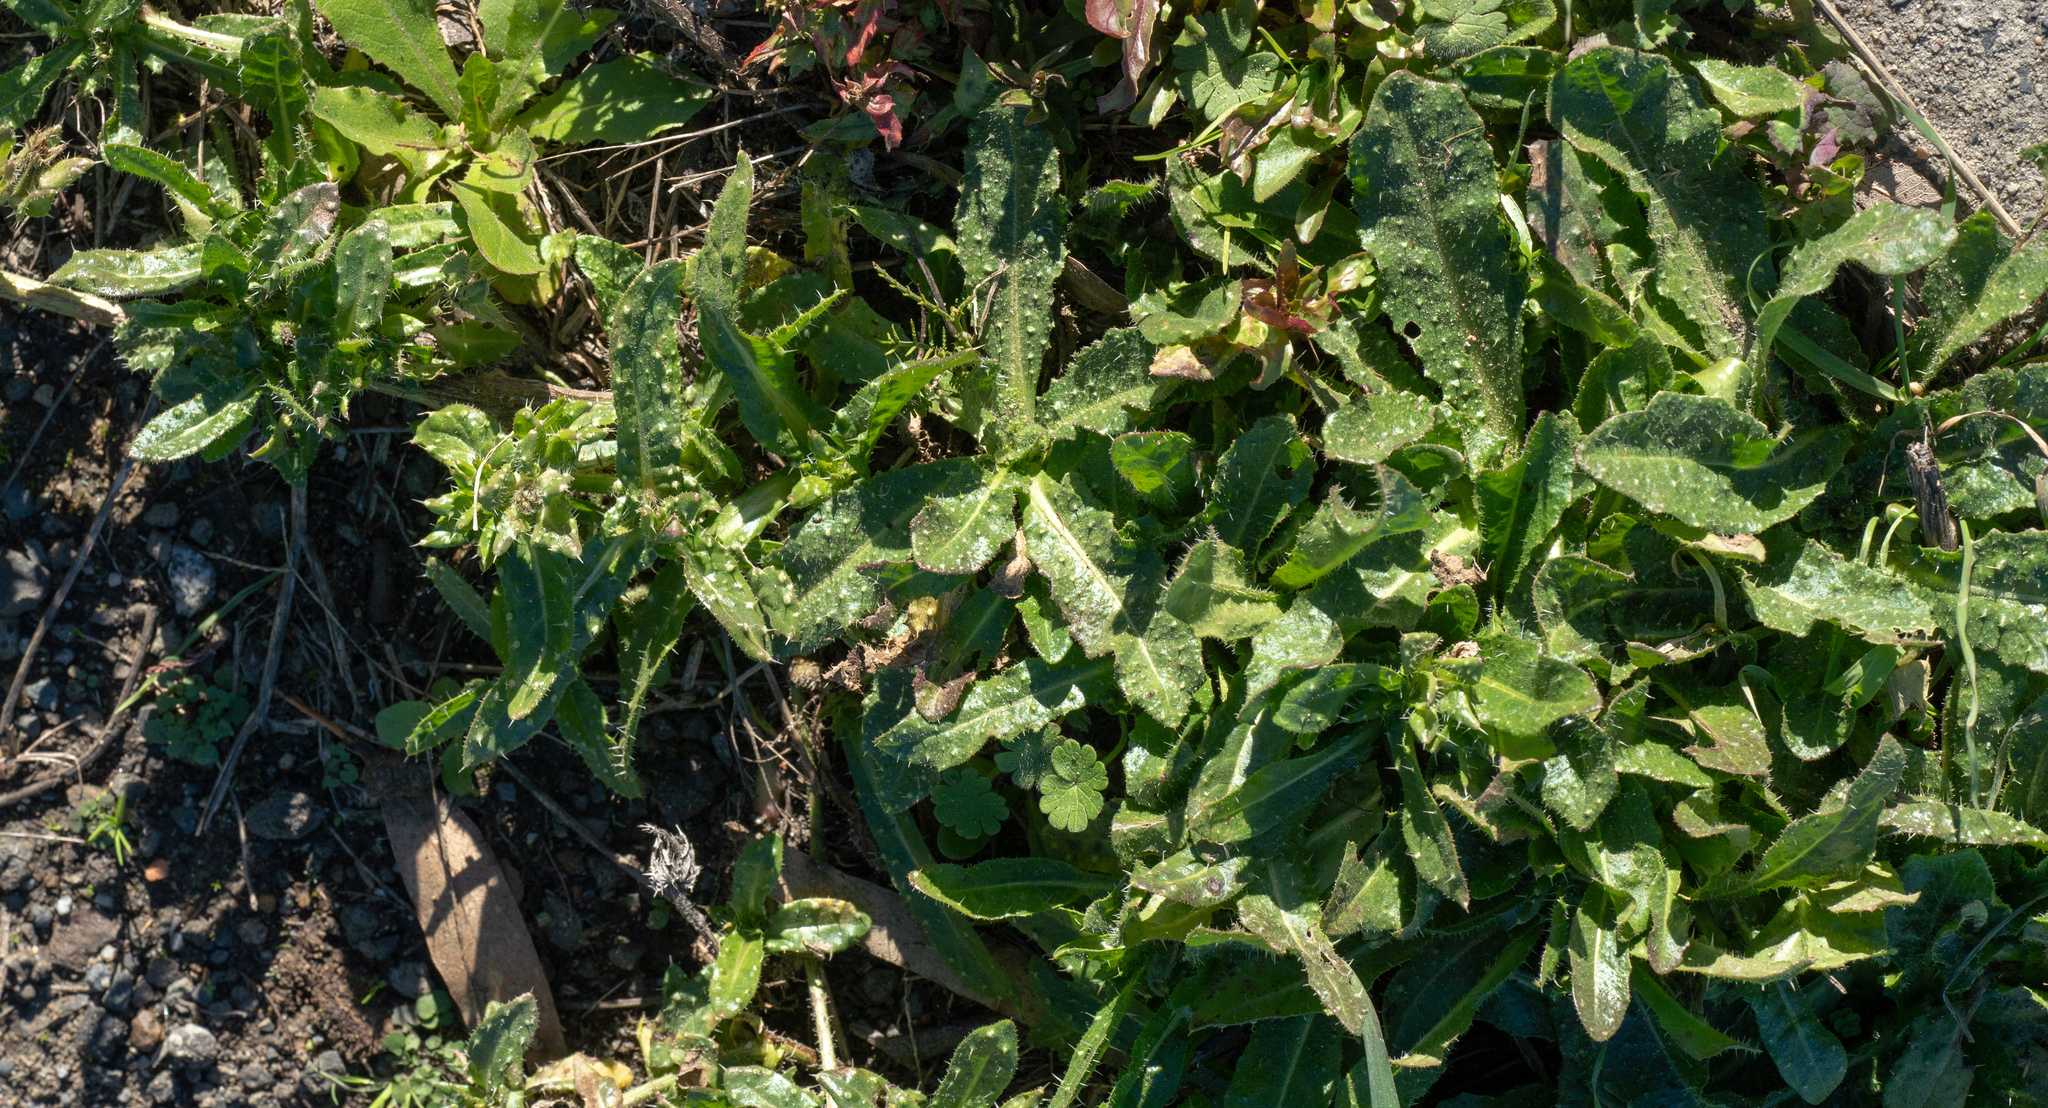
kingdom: Plantae
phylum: Tracheophyta
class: Magnoliopsida
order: Asterales
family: Asteraceae
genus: Helminthotheca
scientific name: Helminthotheca echioides
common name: Ox-tongue
